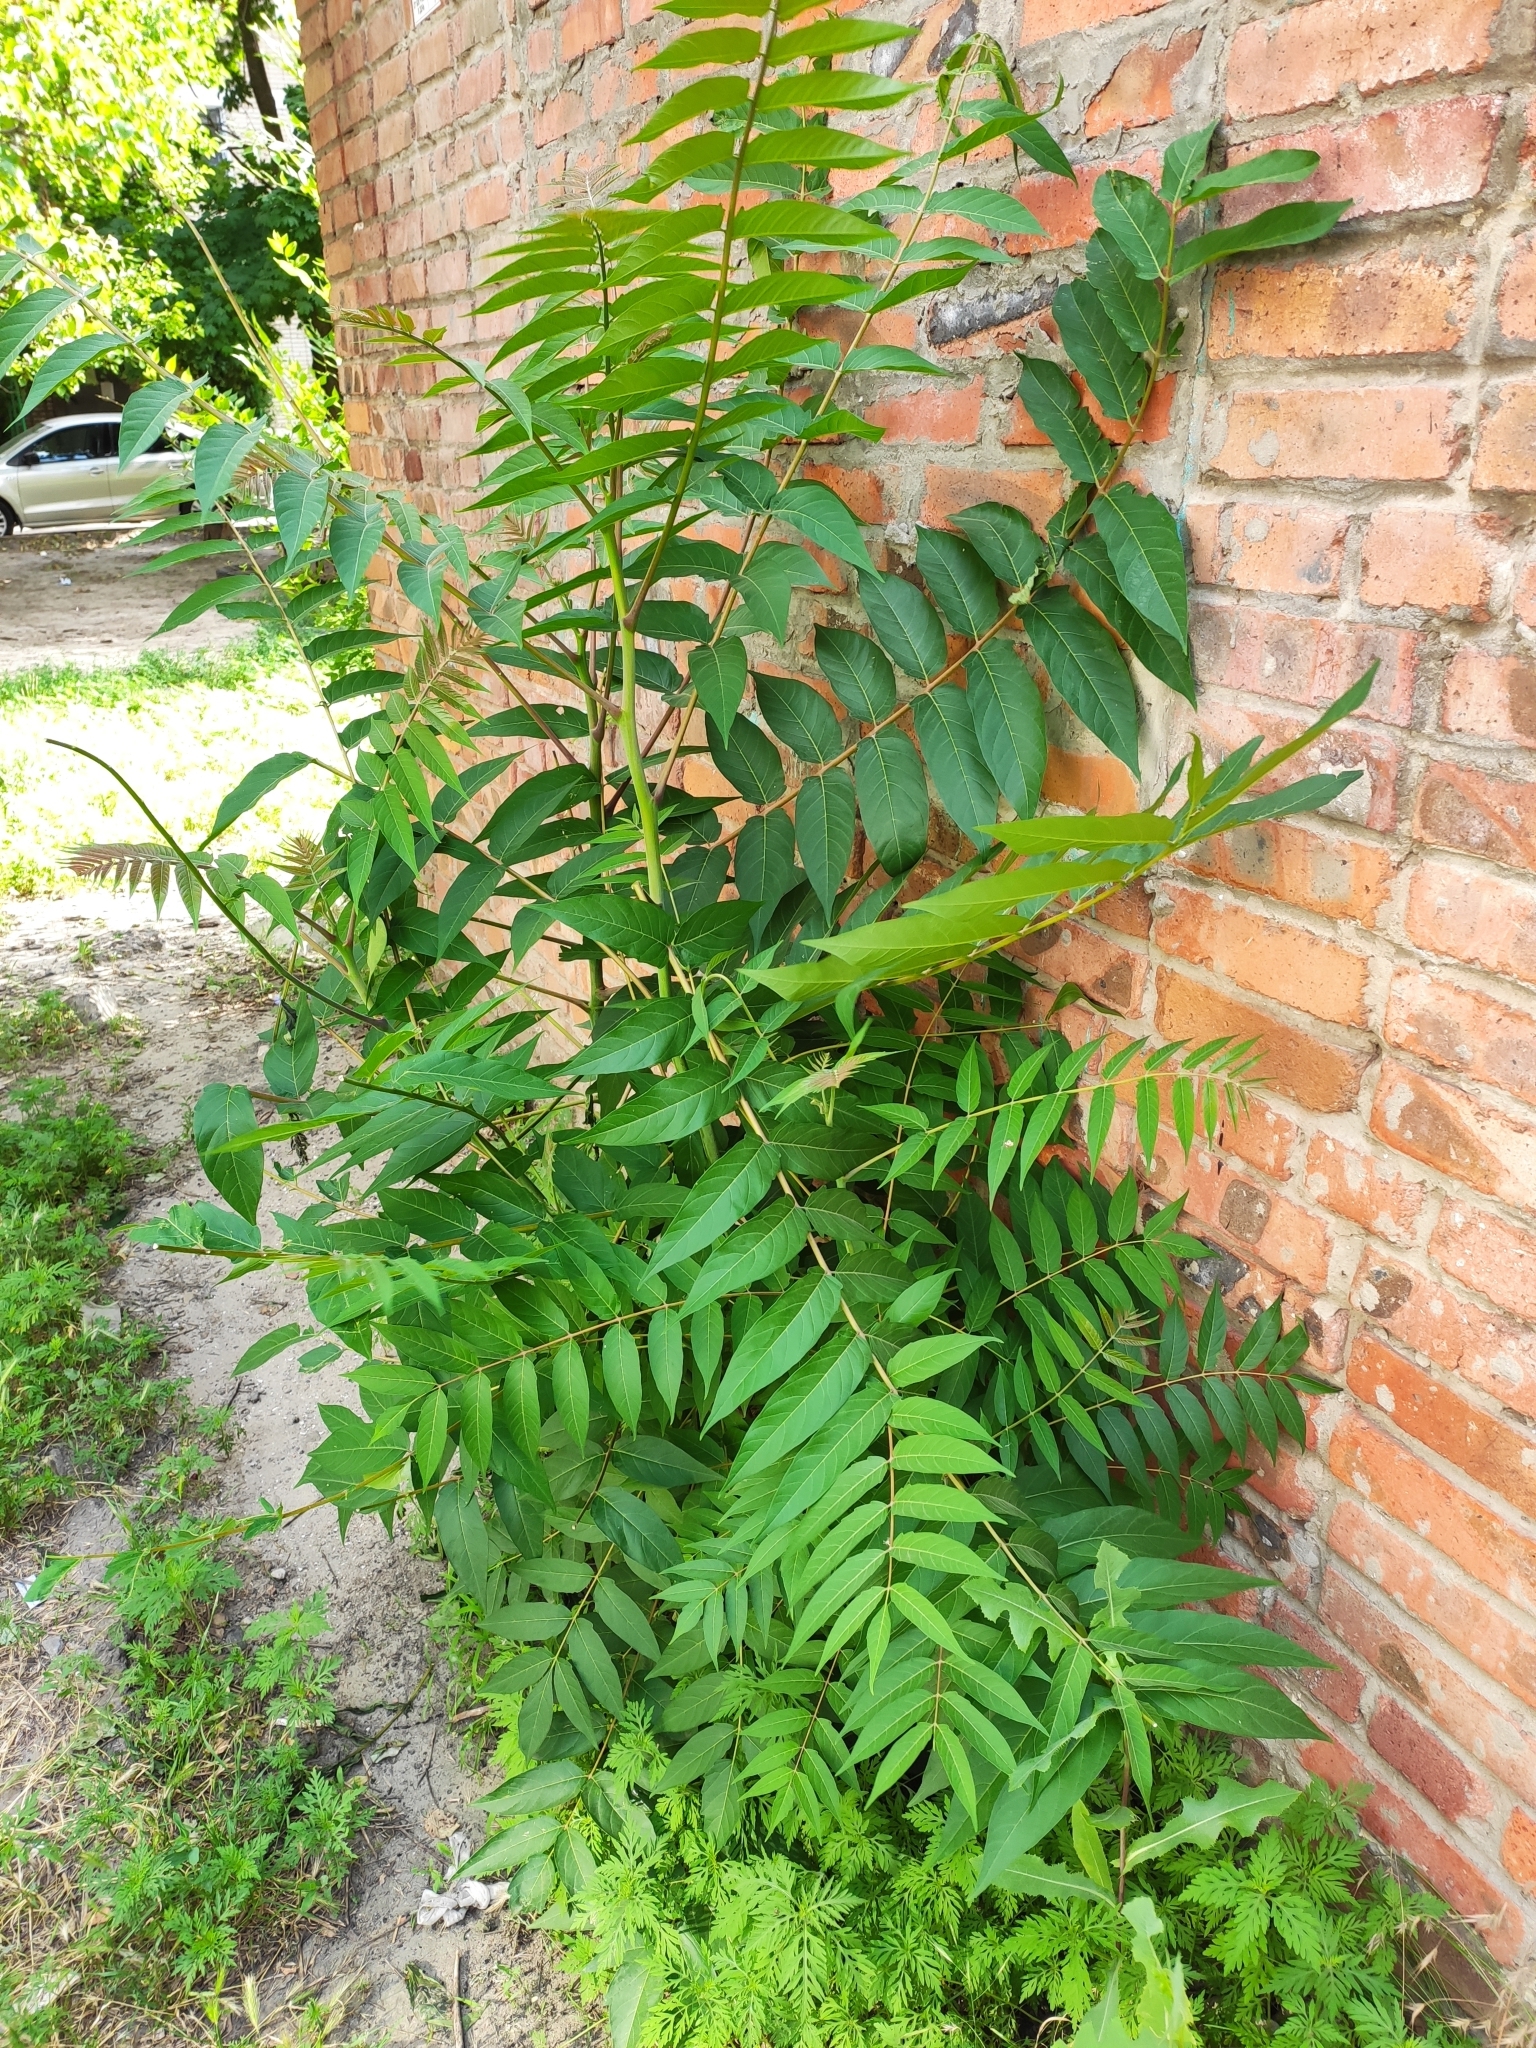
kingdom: Plantae
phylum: Tracheophyta
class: Magnoliopsida
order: Sapindales
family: Simaroubaceae
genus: Ailanthus
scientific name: Ailanthus altissima
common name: Tree-of-heaven
